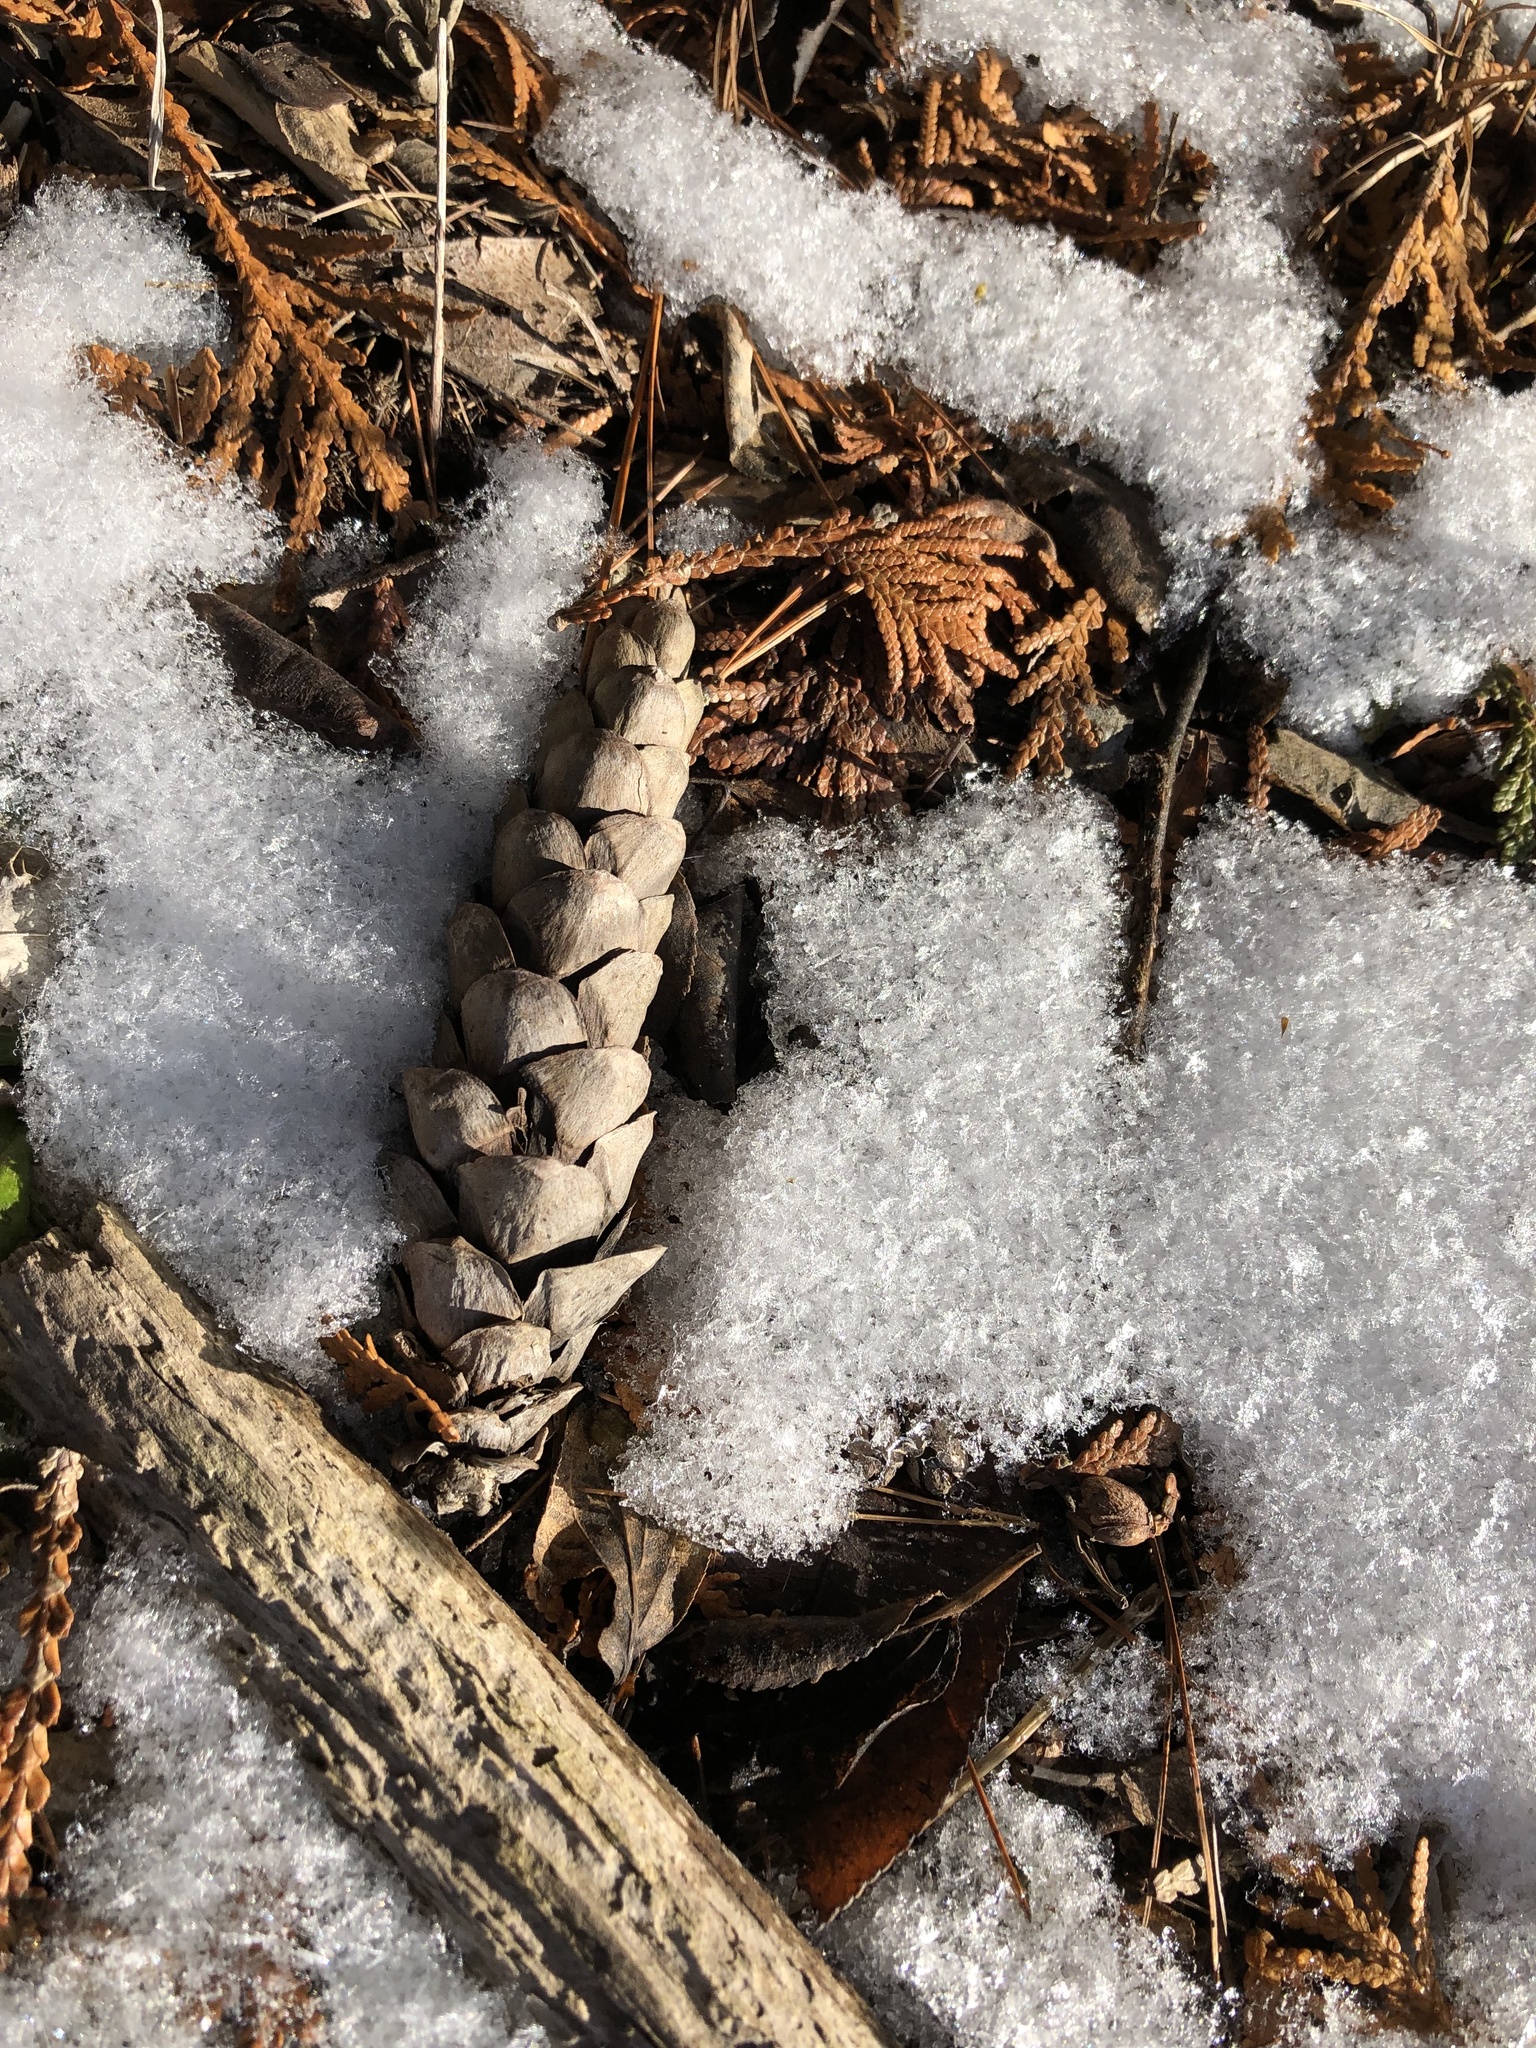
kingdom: Plantae
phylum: Tracheophyta
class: Pinopsida
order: Pinales
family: Pinaceae
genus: Pinus
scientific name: Pinus strobus
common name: Weymouth pine
